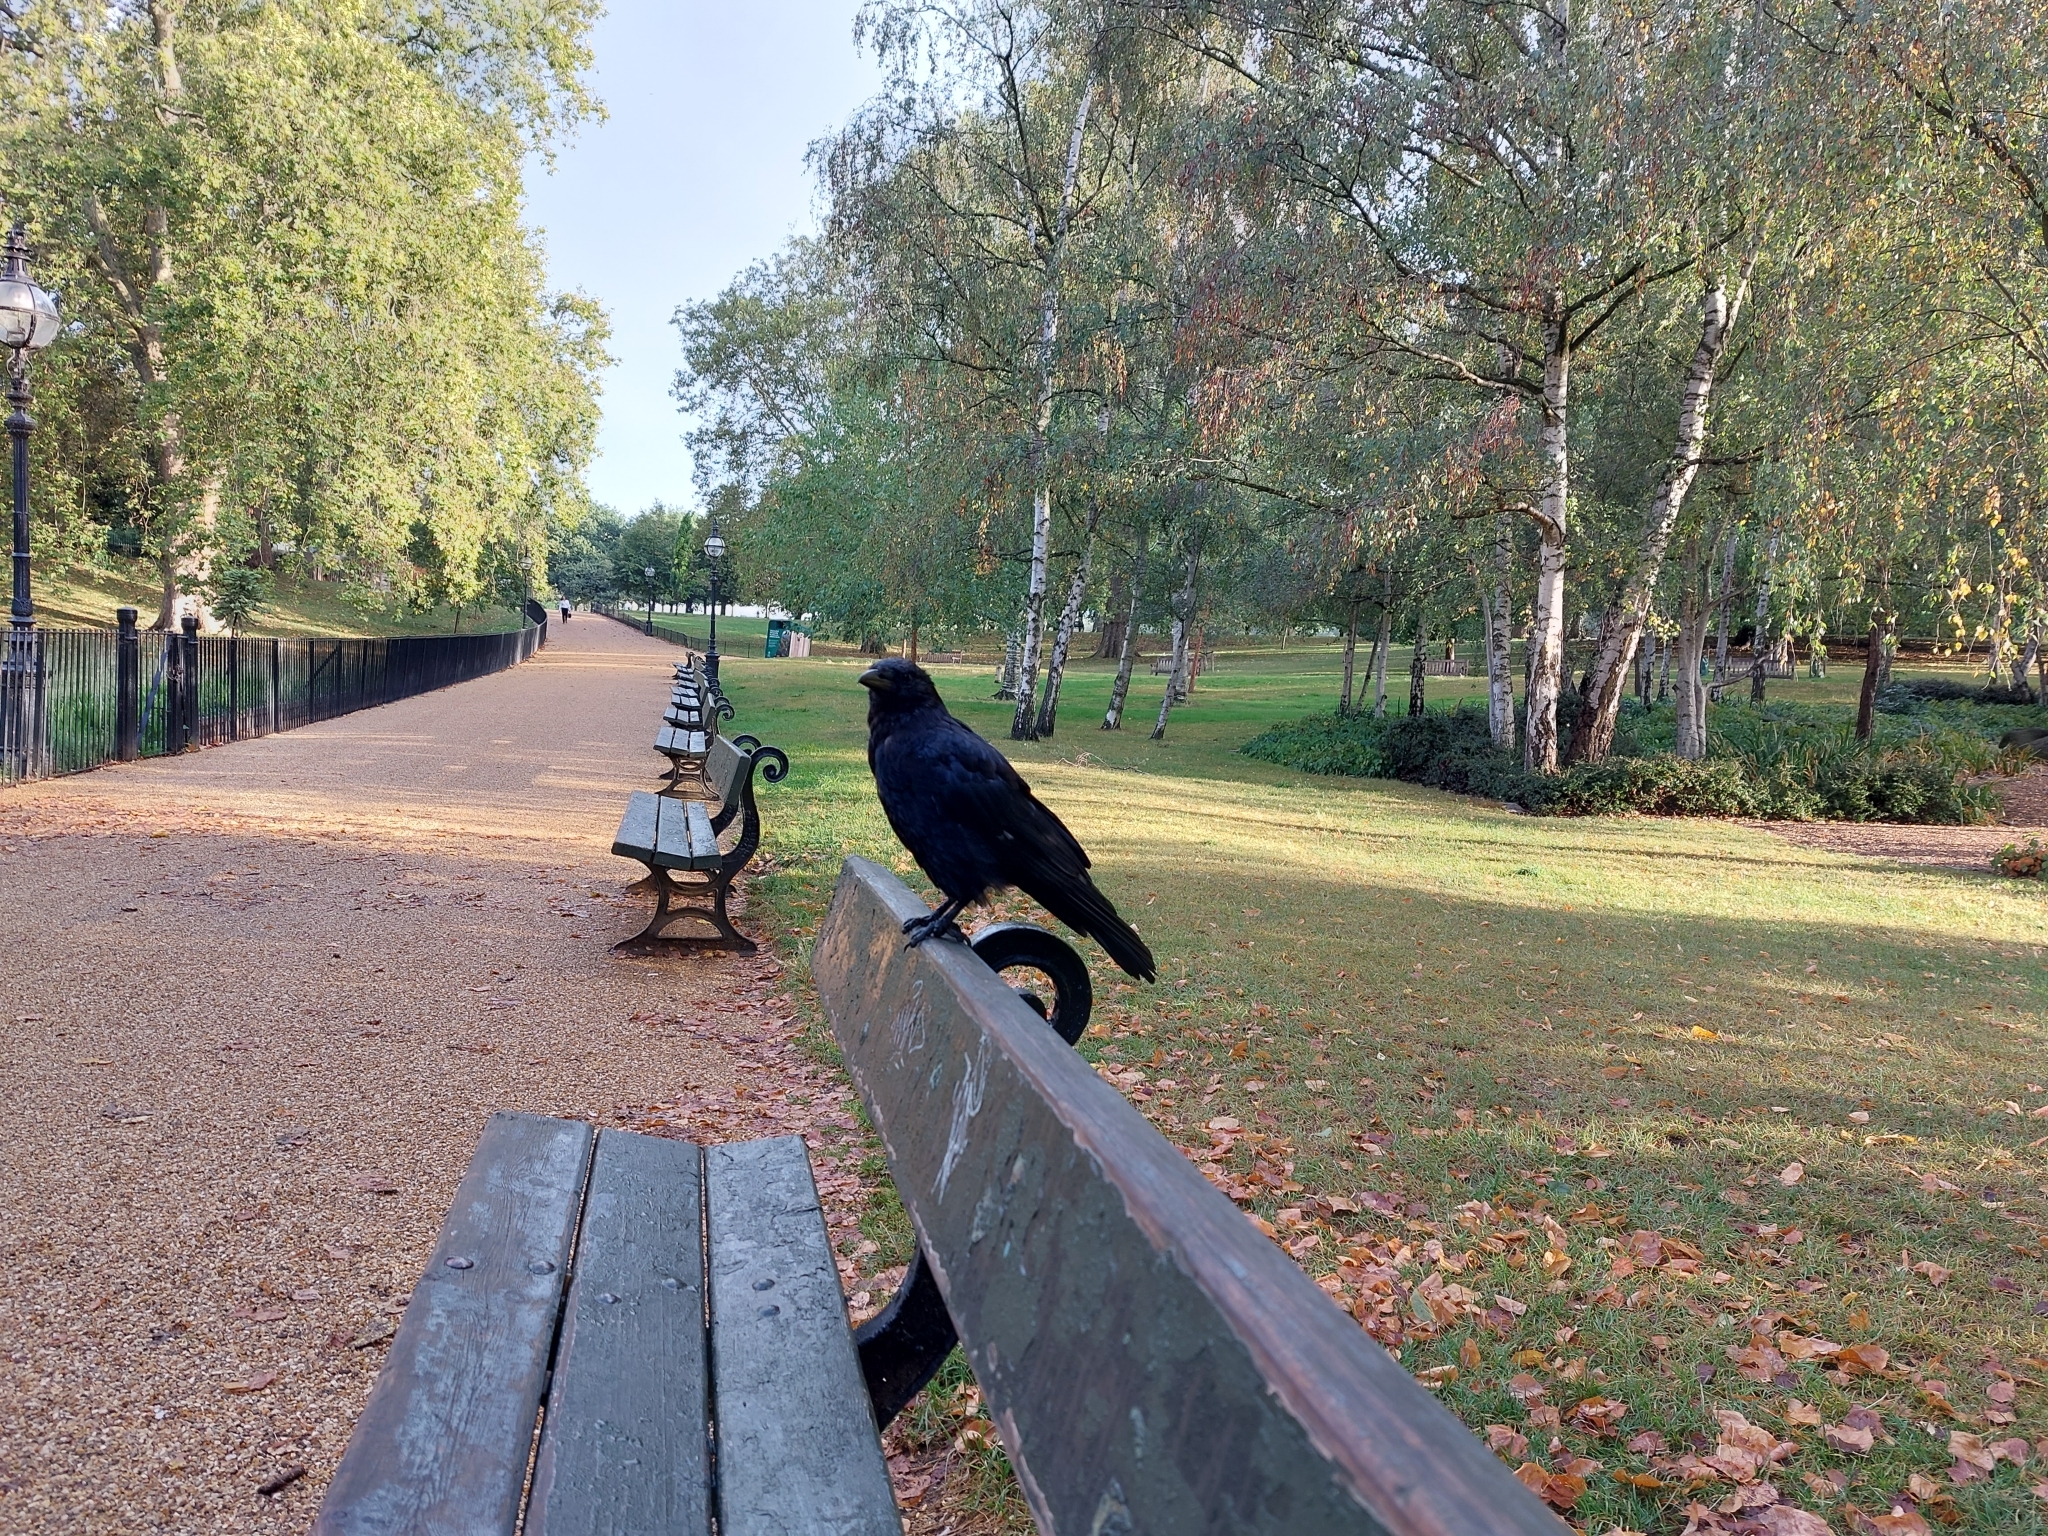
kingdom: Animalia
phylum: Chordata
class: Aves
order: Passeriformes
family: Corvidae
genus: Corvus
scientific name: Corvus corone
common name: Carrion crow
